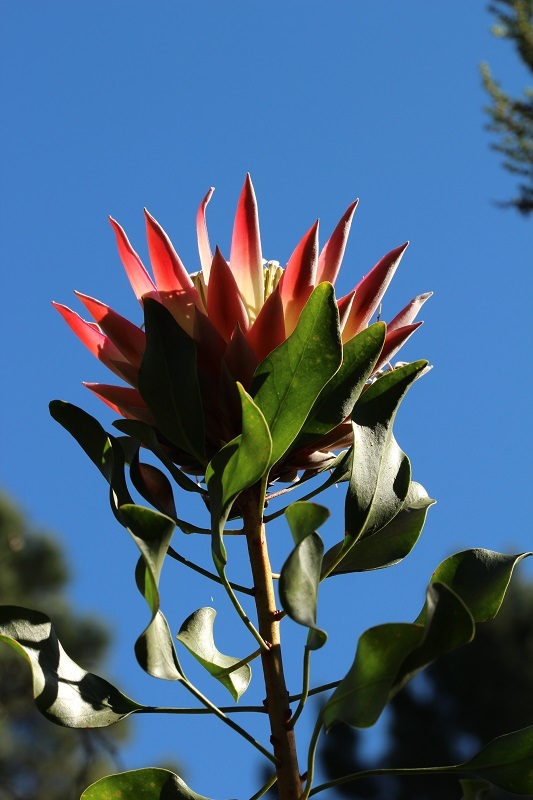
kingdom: Plantae
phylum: Tracheophyta
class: Magnoliopsida
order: Proteales
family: Proteaceae
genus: Protea
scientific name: Protea cynaroides
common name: King protea
